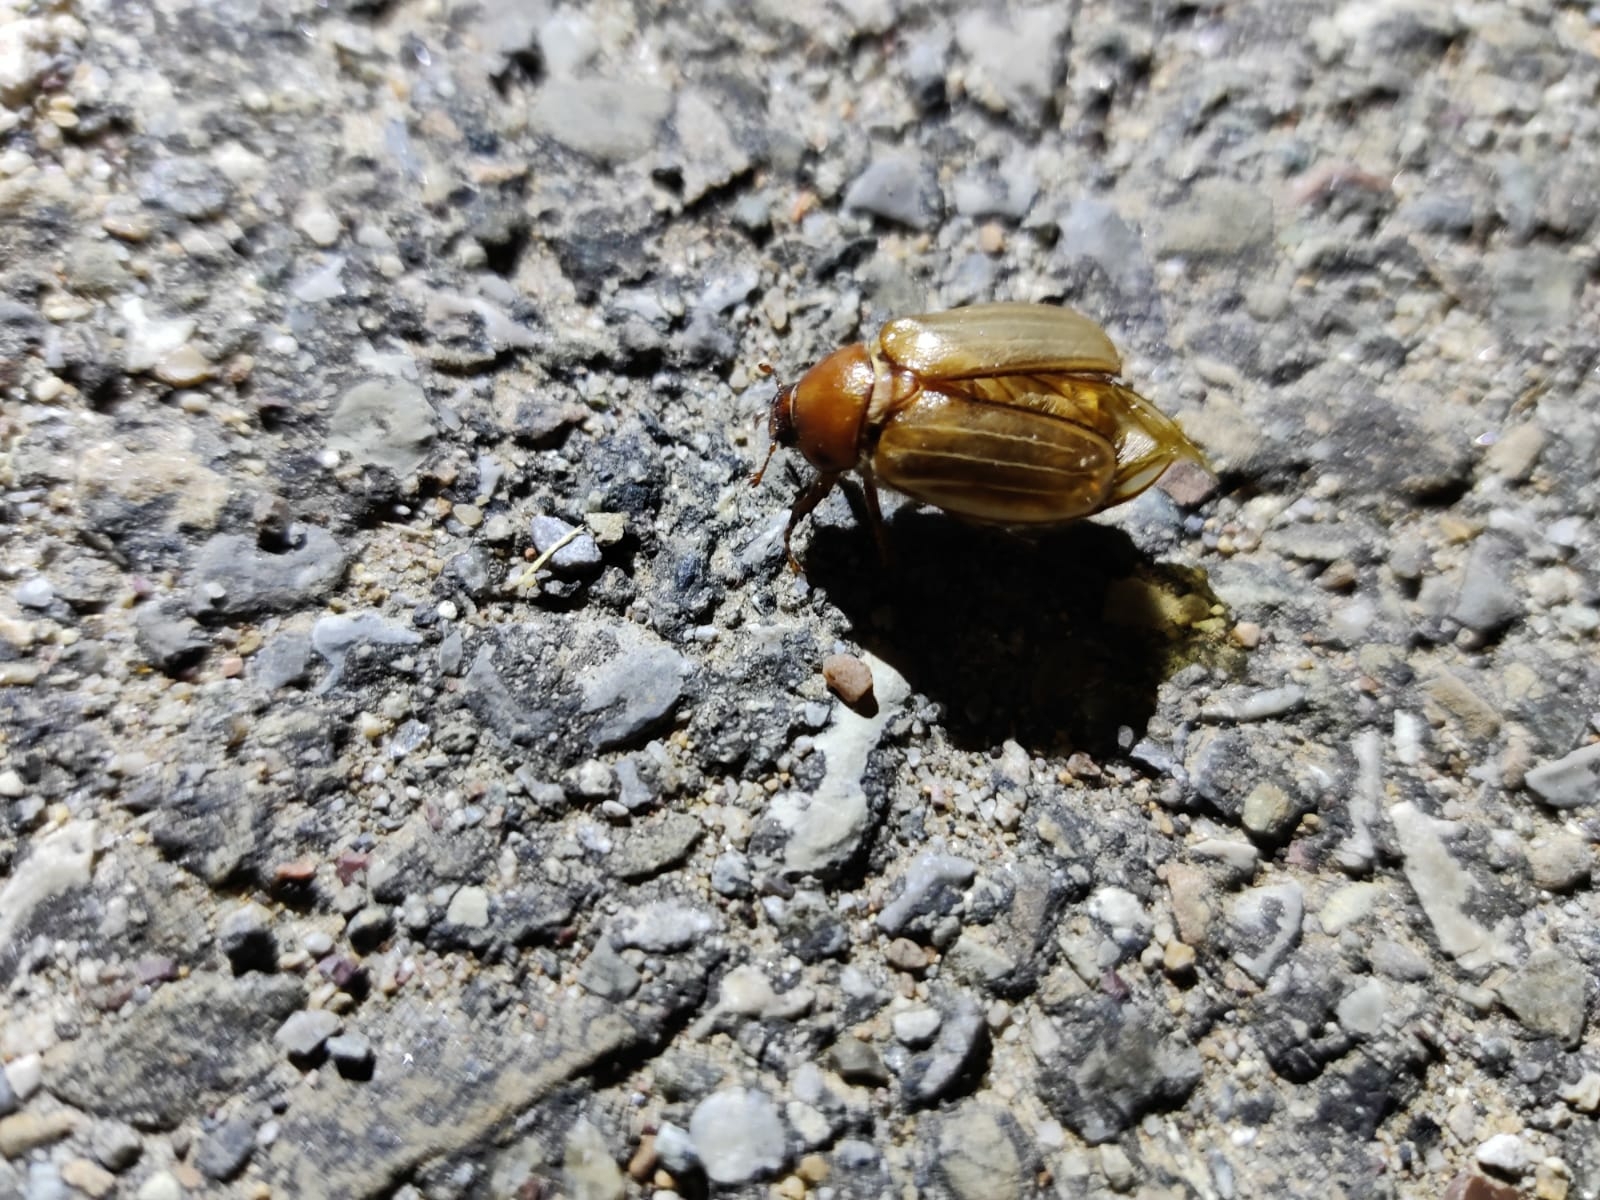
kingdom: Animalia
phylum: Arthropoda
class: Insecta
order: Coleoptera
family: Scarabaeidae
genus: Amphimallon
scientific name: Amphimallon majale
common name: European chafer
